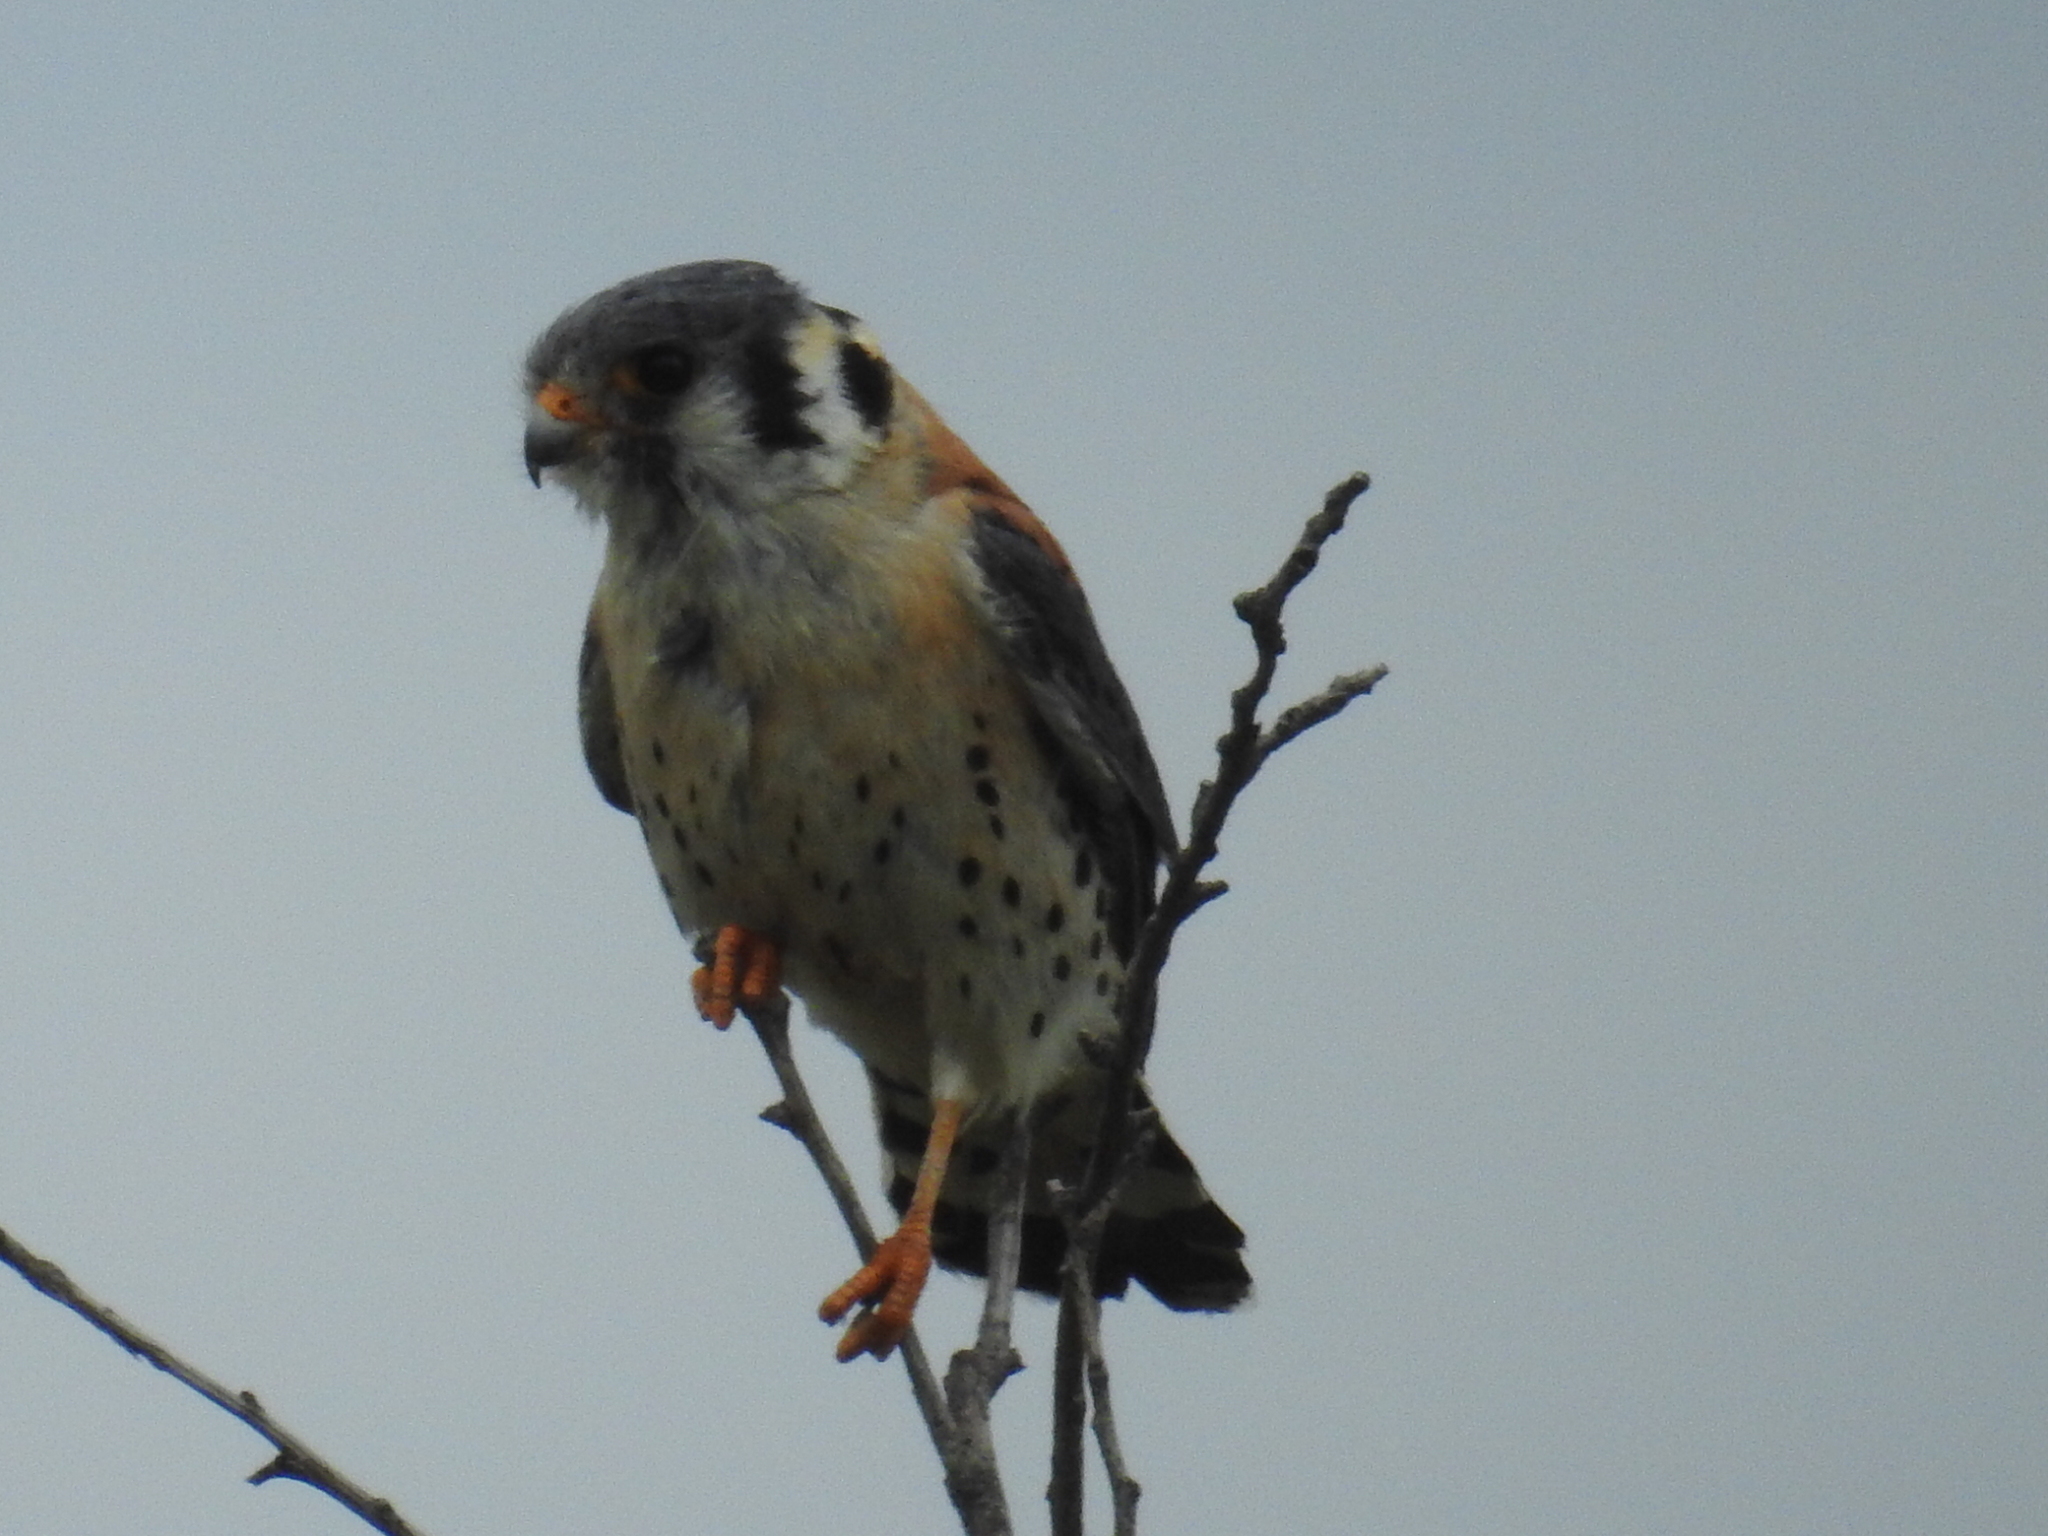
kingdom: Animalia
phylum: Chordata
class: Aves
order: Falconiformes
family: Falconidae
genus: Falco
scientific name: Falco sparverius
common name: American kestrel
